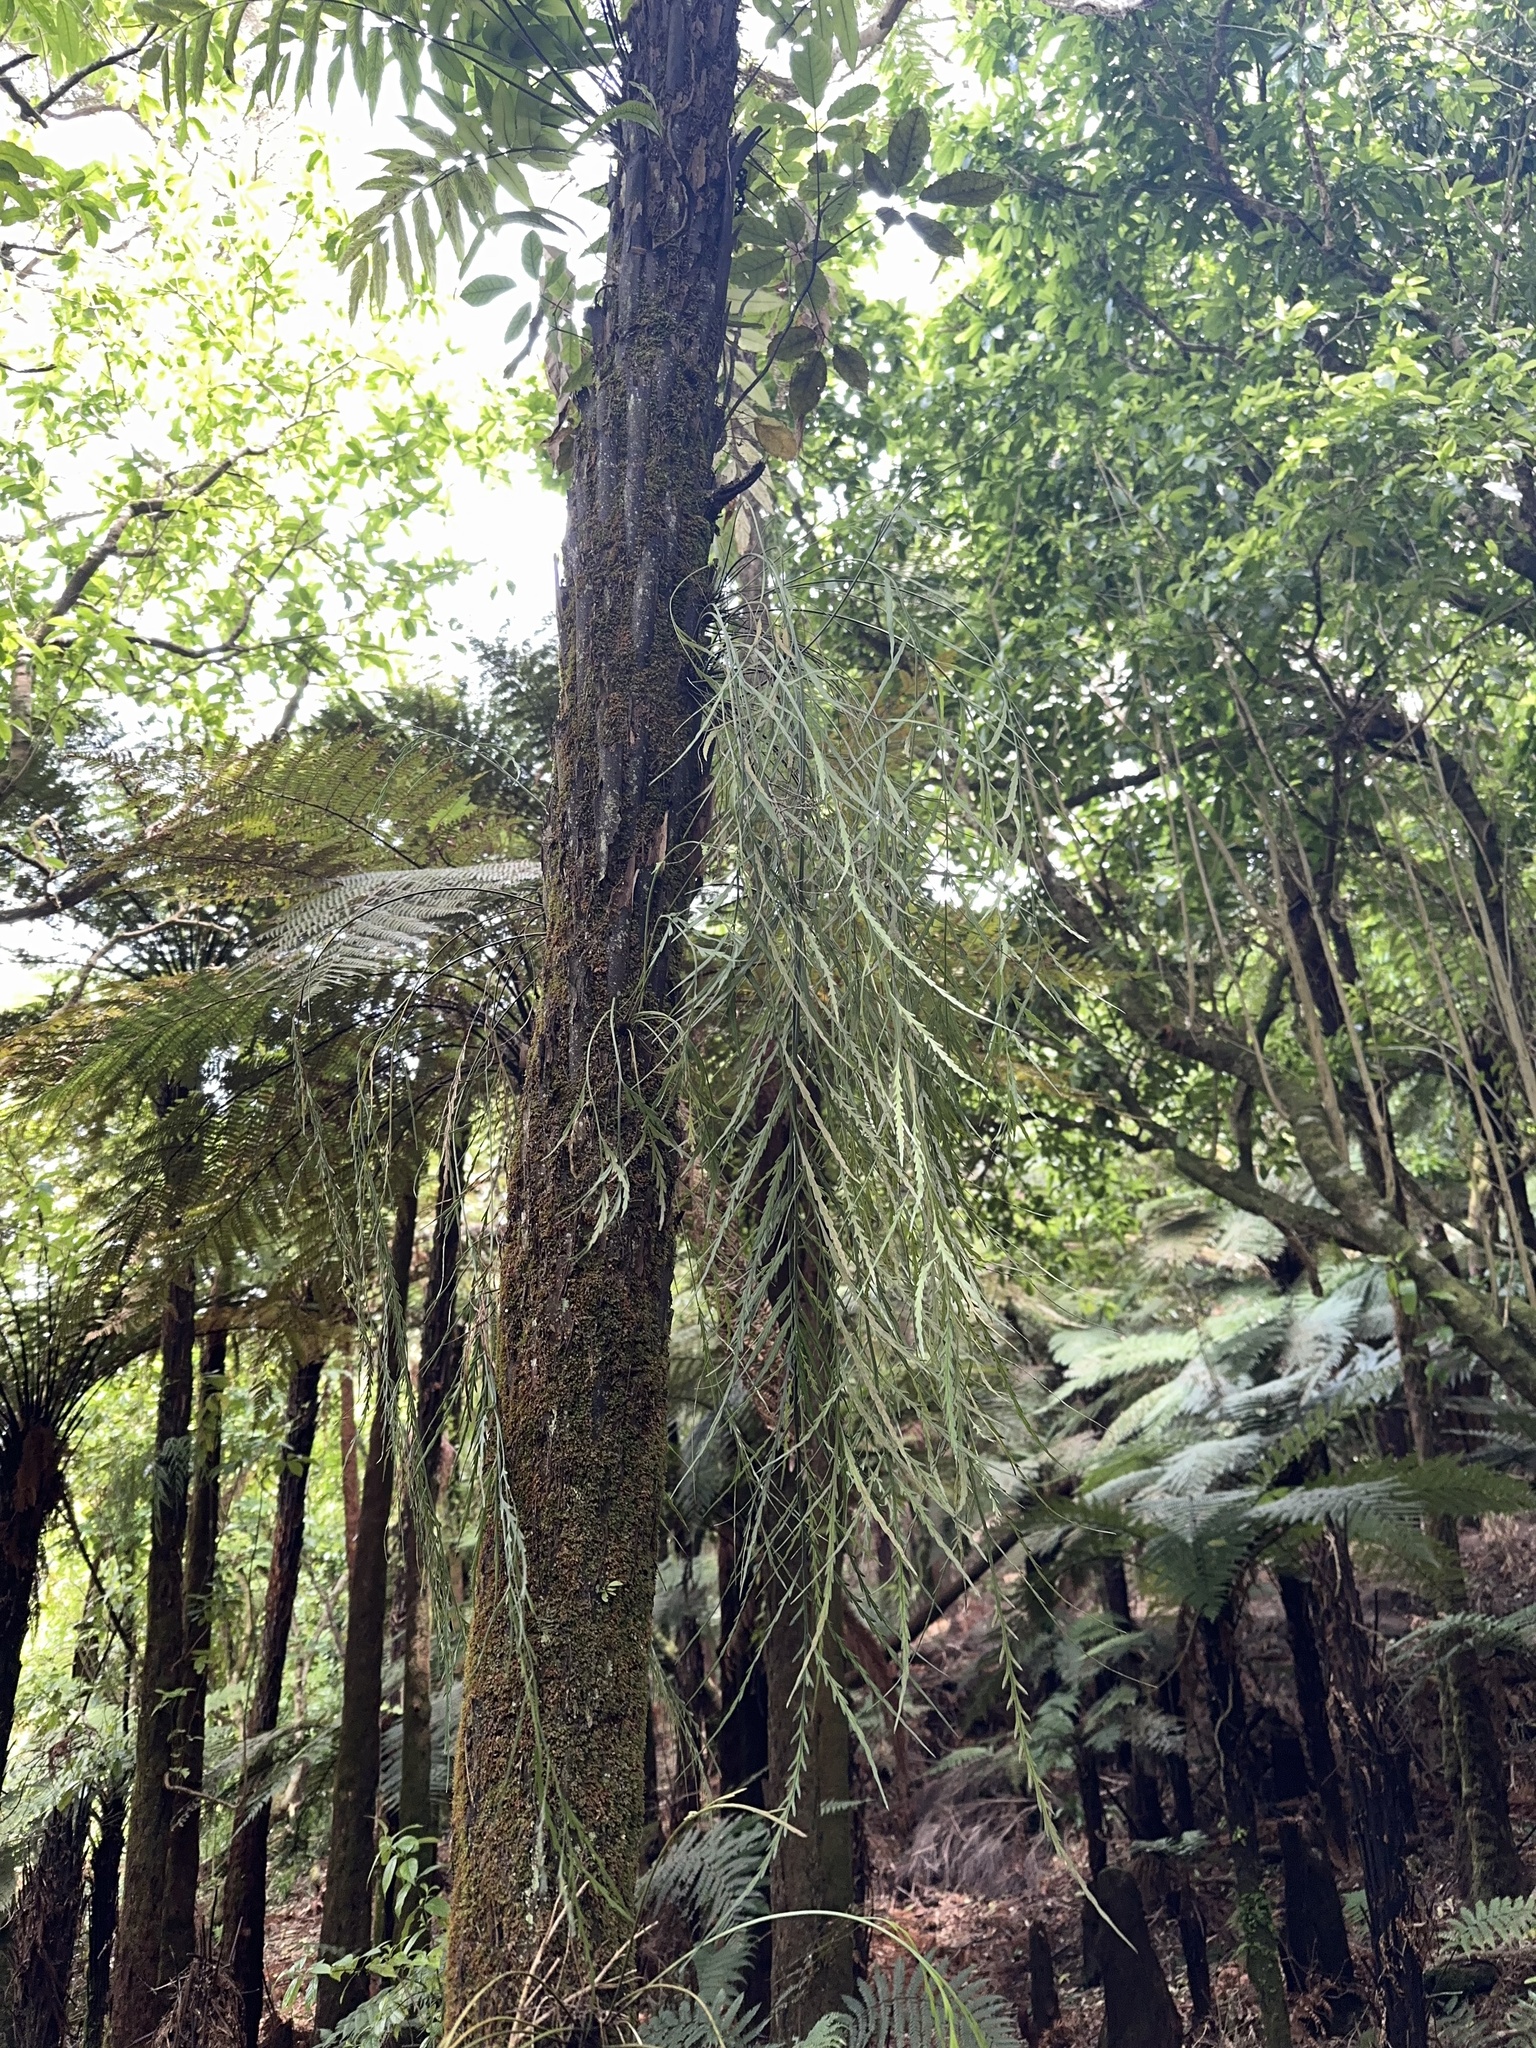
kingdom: Plantae
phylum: Tracheophyta
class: Polypodiopsida
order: Polypodiales
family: Aspleniaceae
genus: Asplenium
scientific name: Asplenium flaccidum
